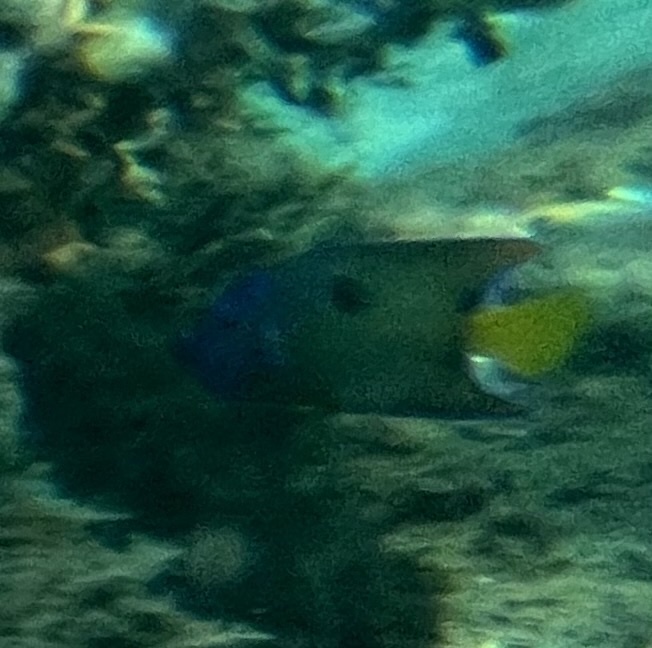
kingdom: Animalia
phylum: Chordata
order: Perciformes
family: Pomacanthidae
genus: Holacanthus
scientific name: Holacanthus ciliaris
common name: Queen angelfish
